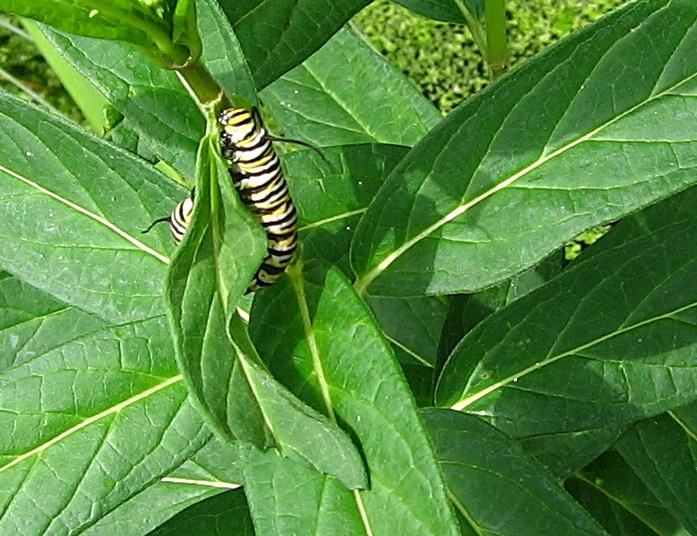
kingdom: Animalia
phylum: Arthropoda
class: Insecta
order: Lepidoptera
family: Nymphalidae
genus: Danaus
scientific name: Danaus plexippus
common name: Monarch
